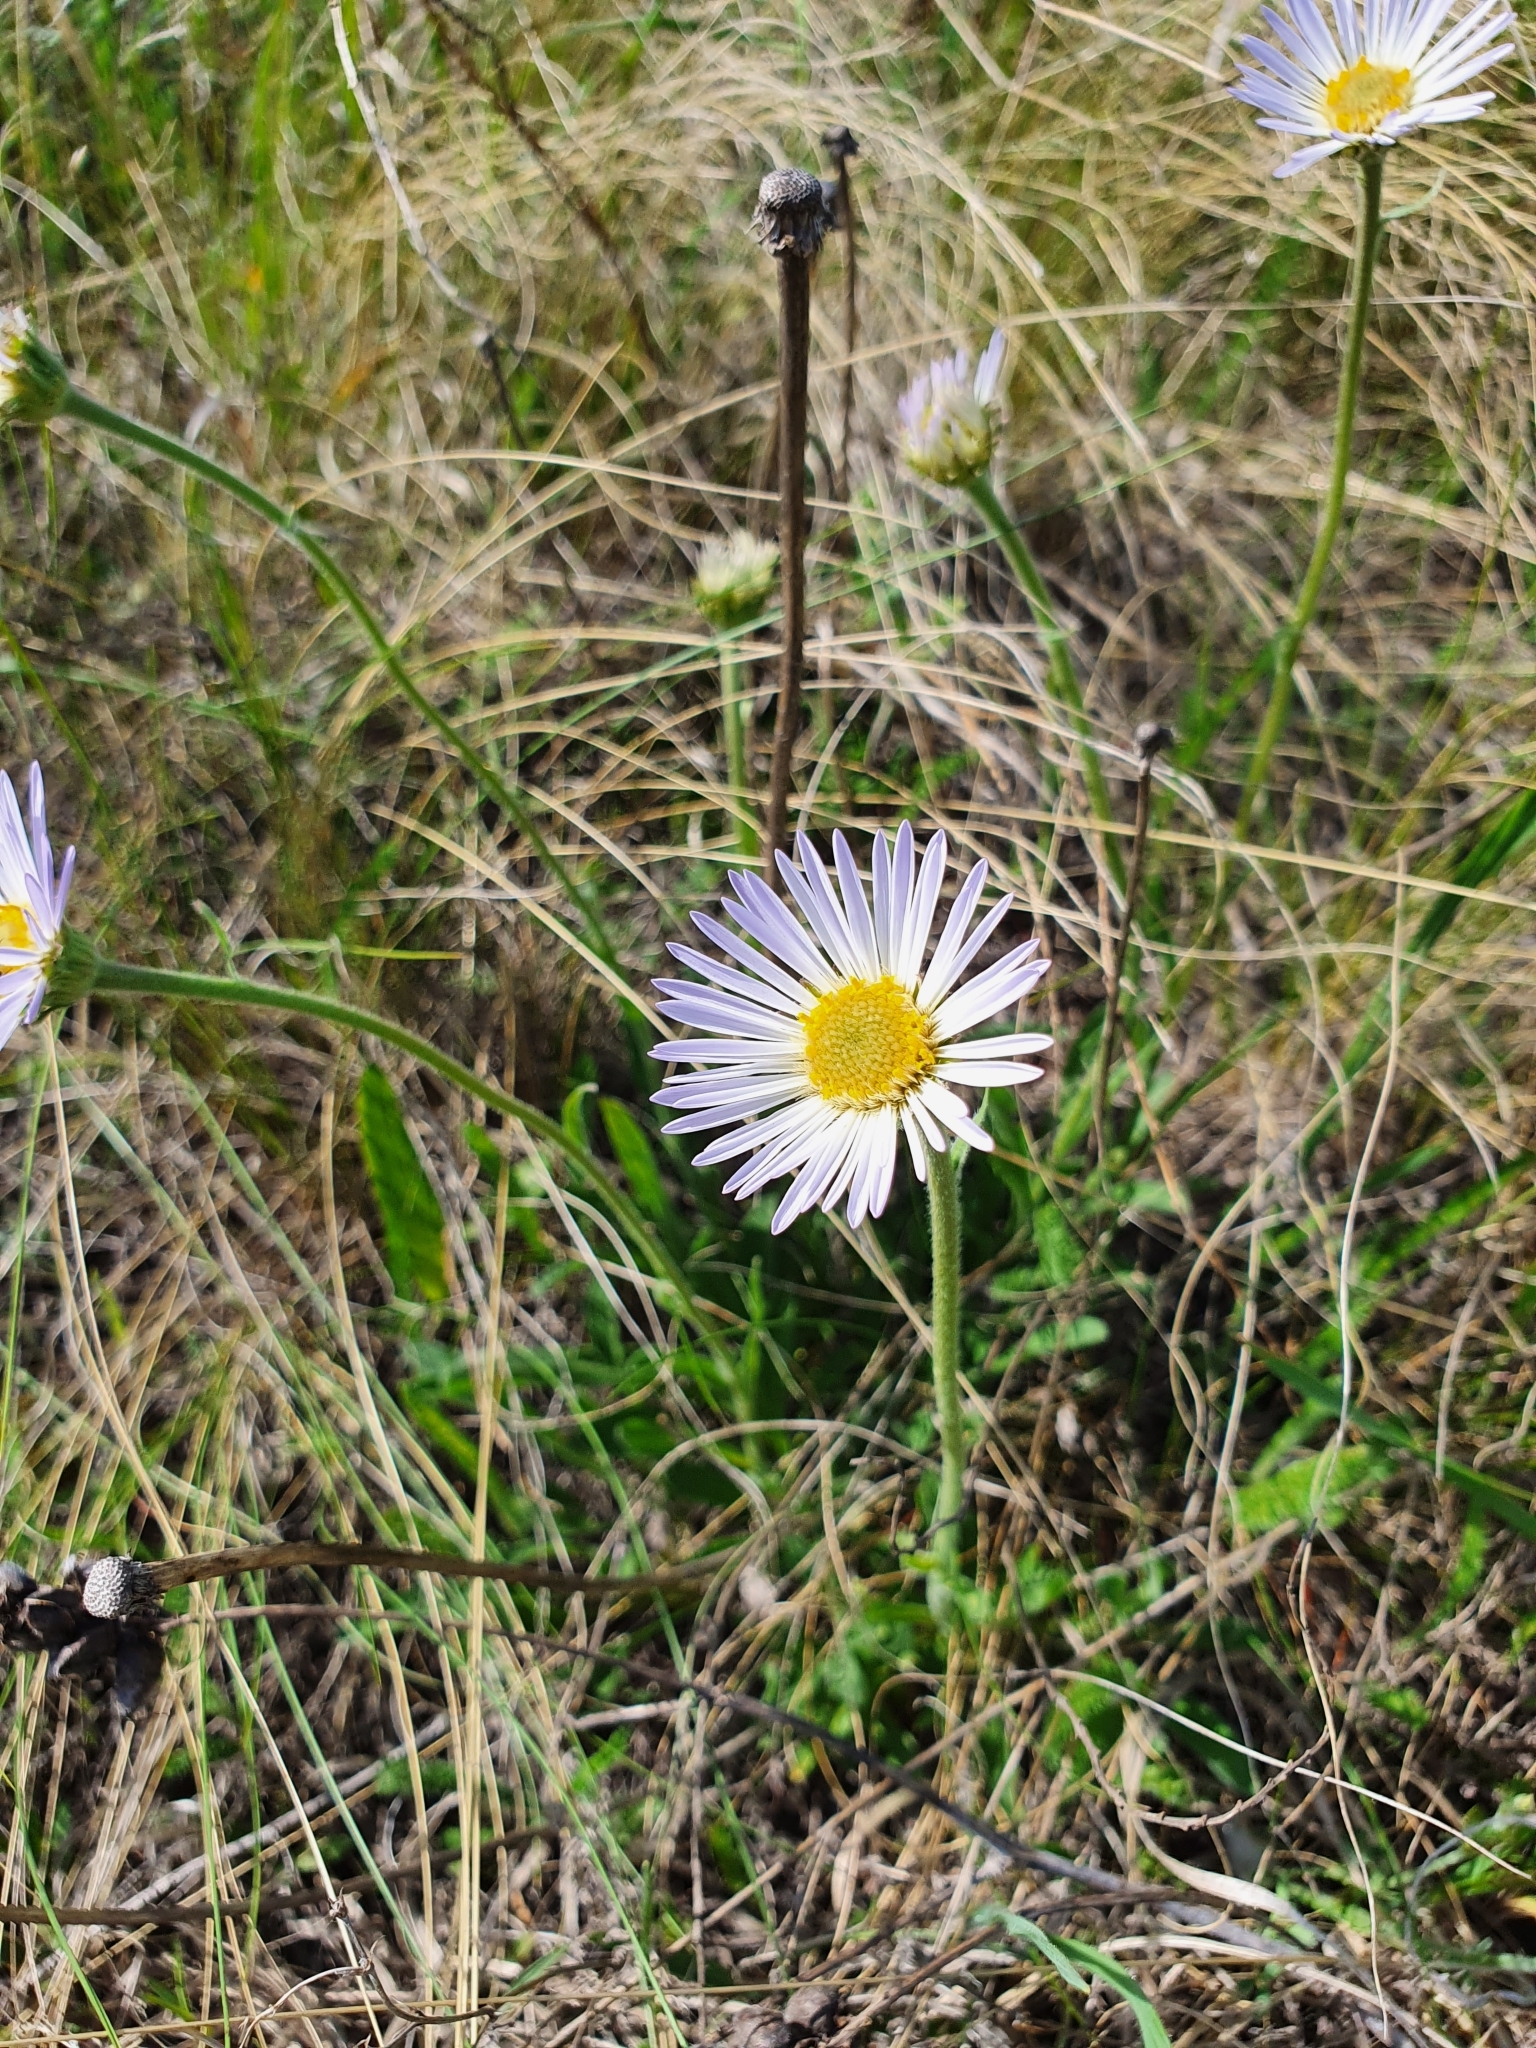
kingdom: Plantae
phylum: Tracheophyta
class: Magnoliopsida
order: Asterales
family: Asteraceae
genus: Aster
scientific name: Aster alpinus
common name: Alpine aster
